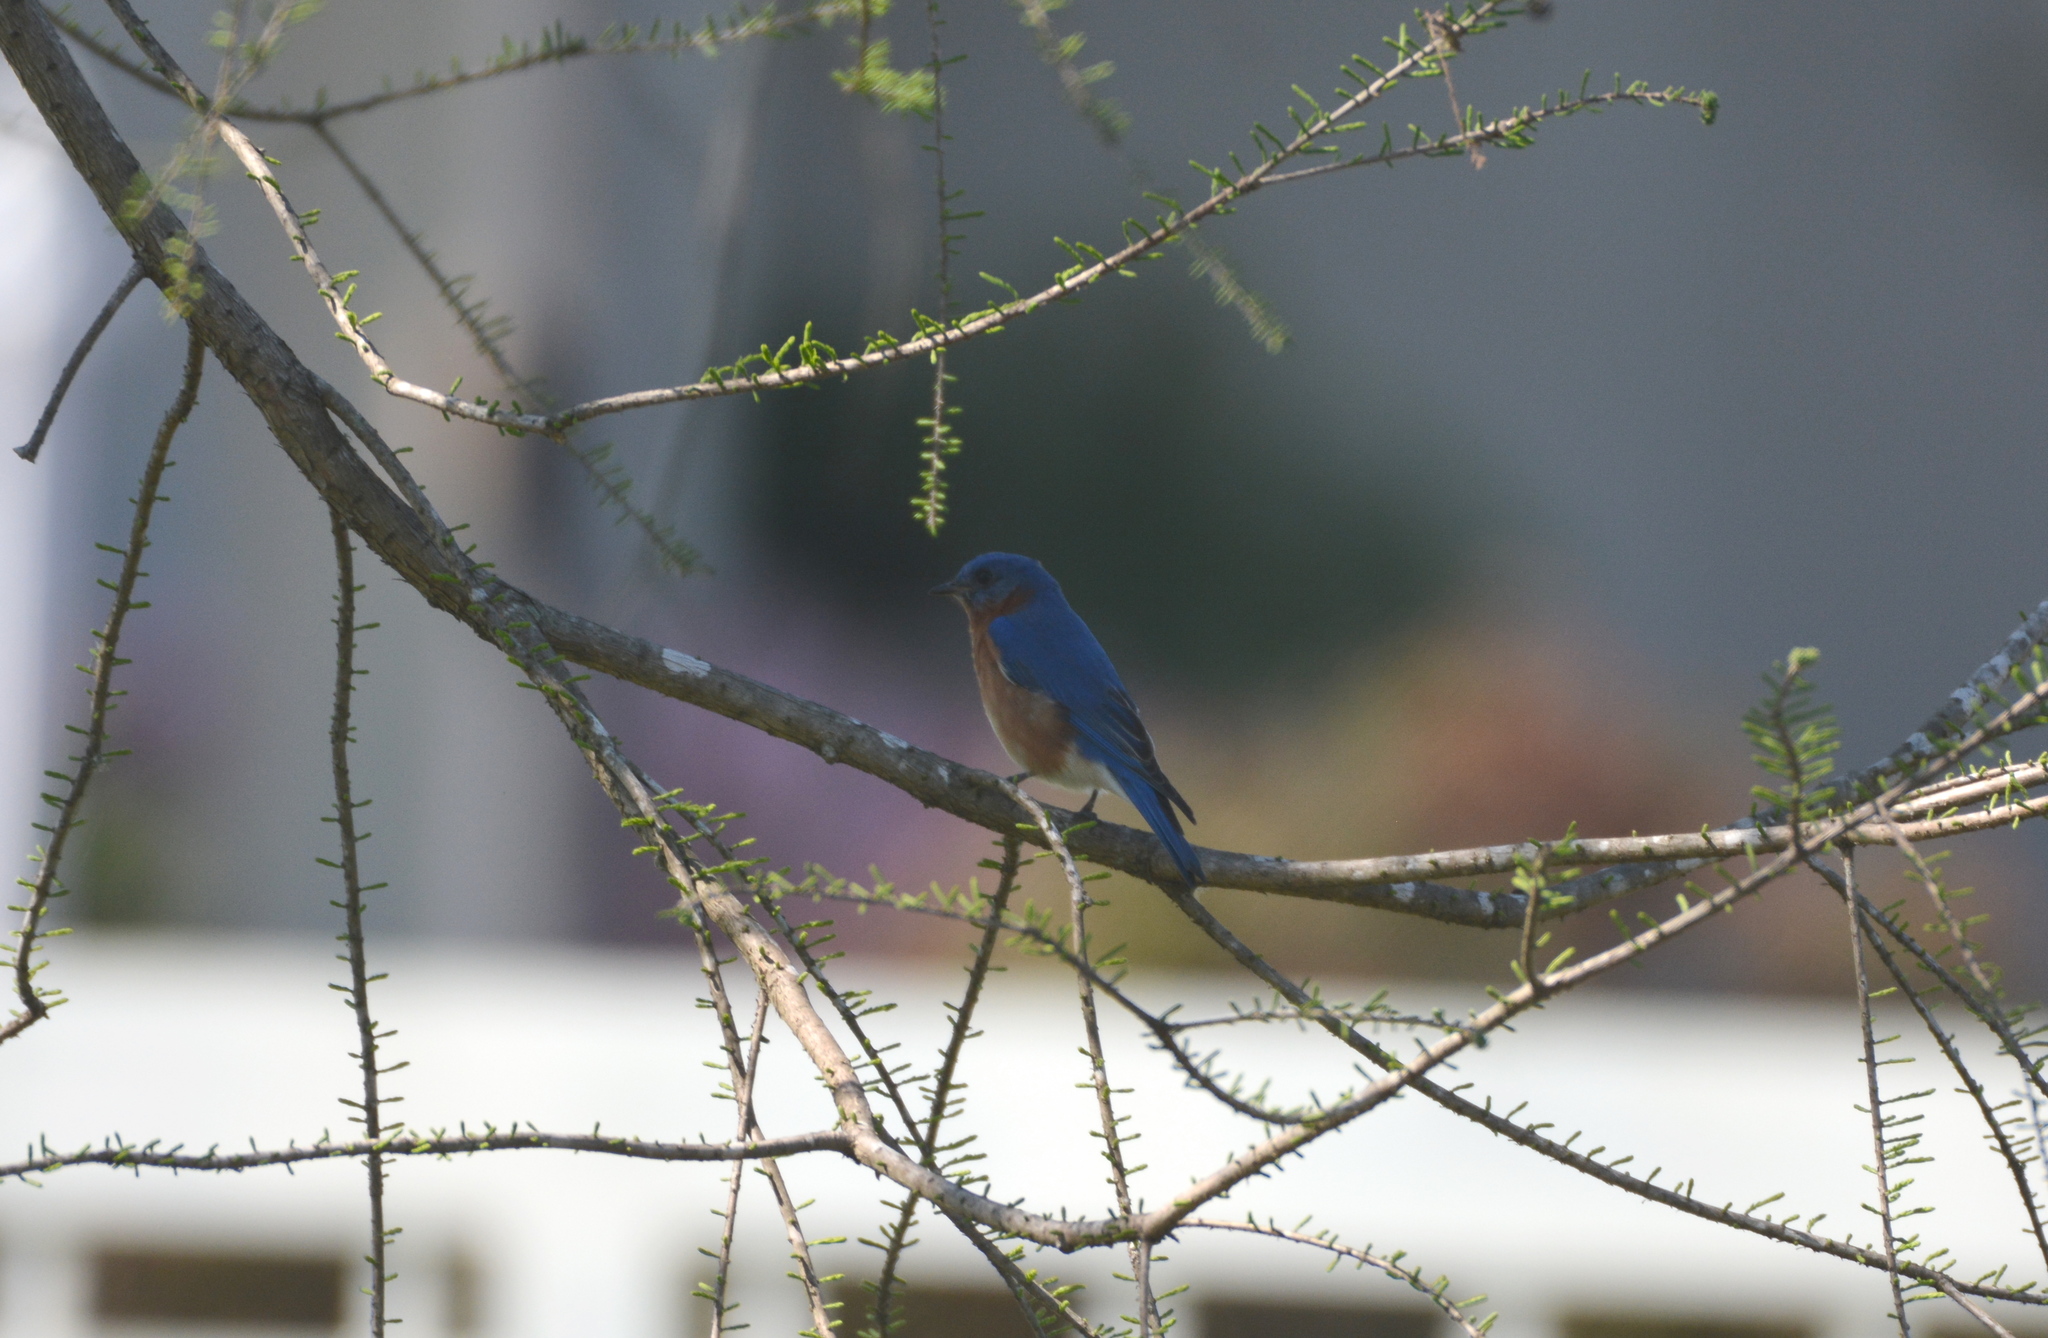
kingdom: Animalia
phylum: Chordata
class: Aves
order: Passeriformes
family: Turdidae
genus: Sialia
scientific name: Sialia sialis
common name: Eastern bluebird
